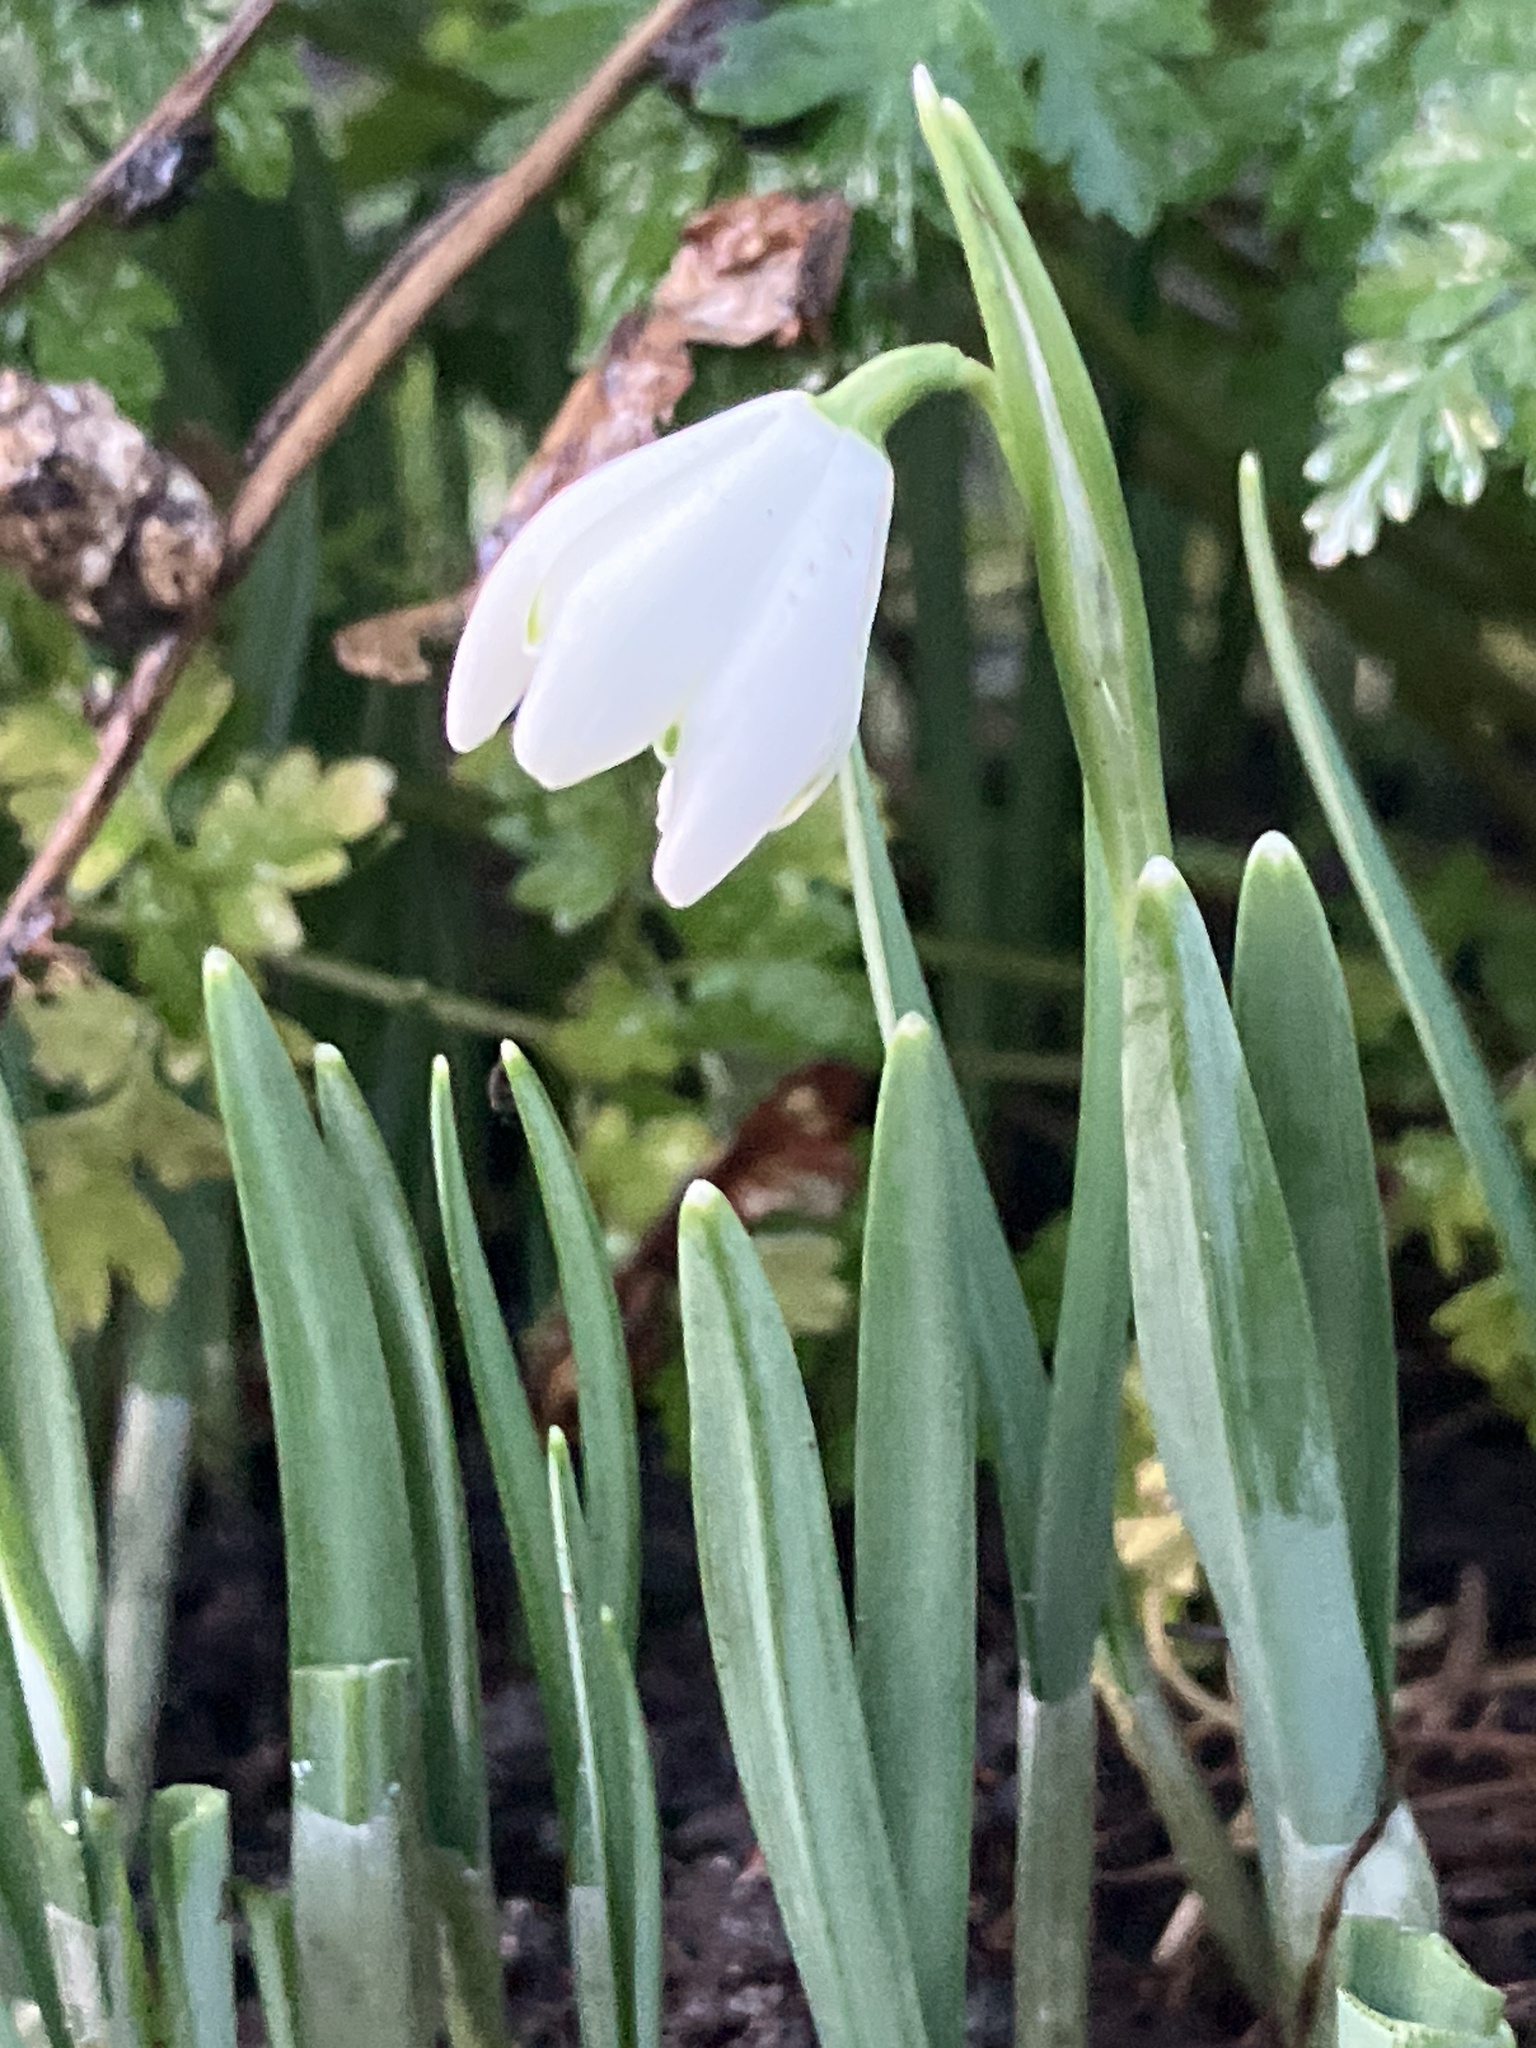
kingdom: Plantae
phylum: Tracheophyta
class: Liliopsida
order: Asparagales
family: Amaryllidaceae
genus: Galanthus
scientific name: Galanthus nivalis
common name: Snowdrop
